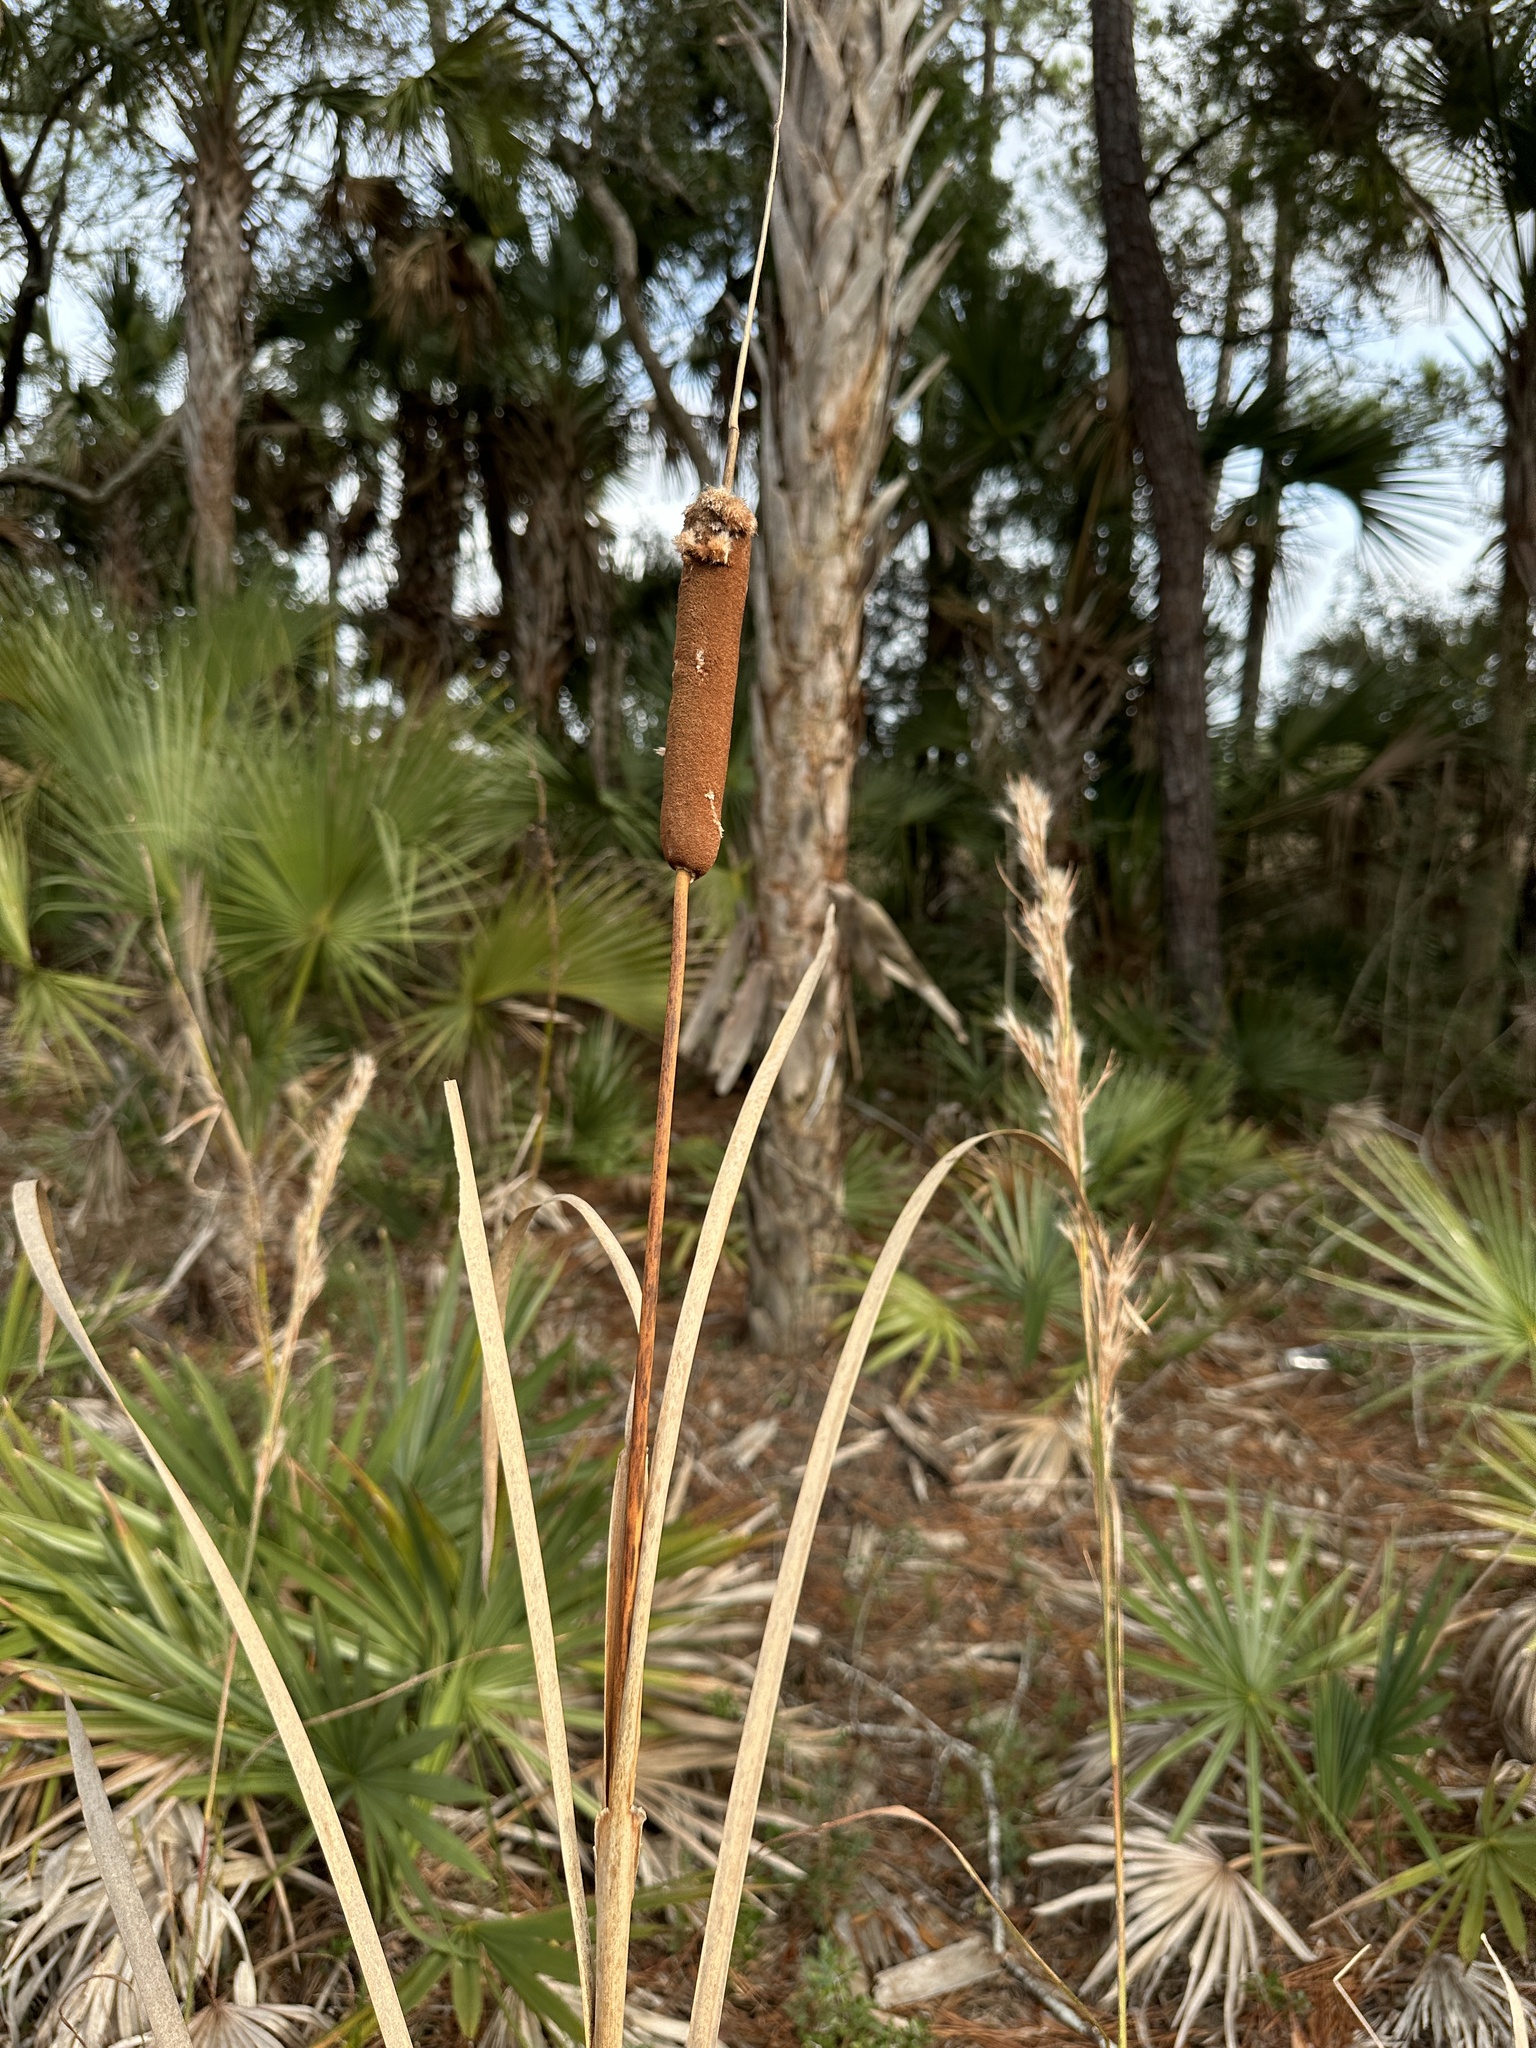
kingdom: Plantae
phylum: Tracheophyta
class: Liliopsida
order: Poales
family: Typhaceae
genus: Typha
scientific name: Typha latifolia
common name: Broadleaf cattail
